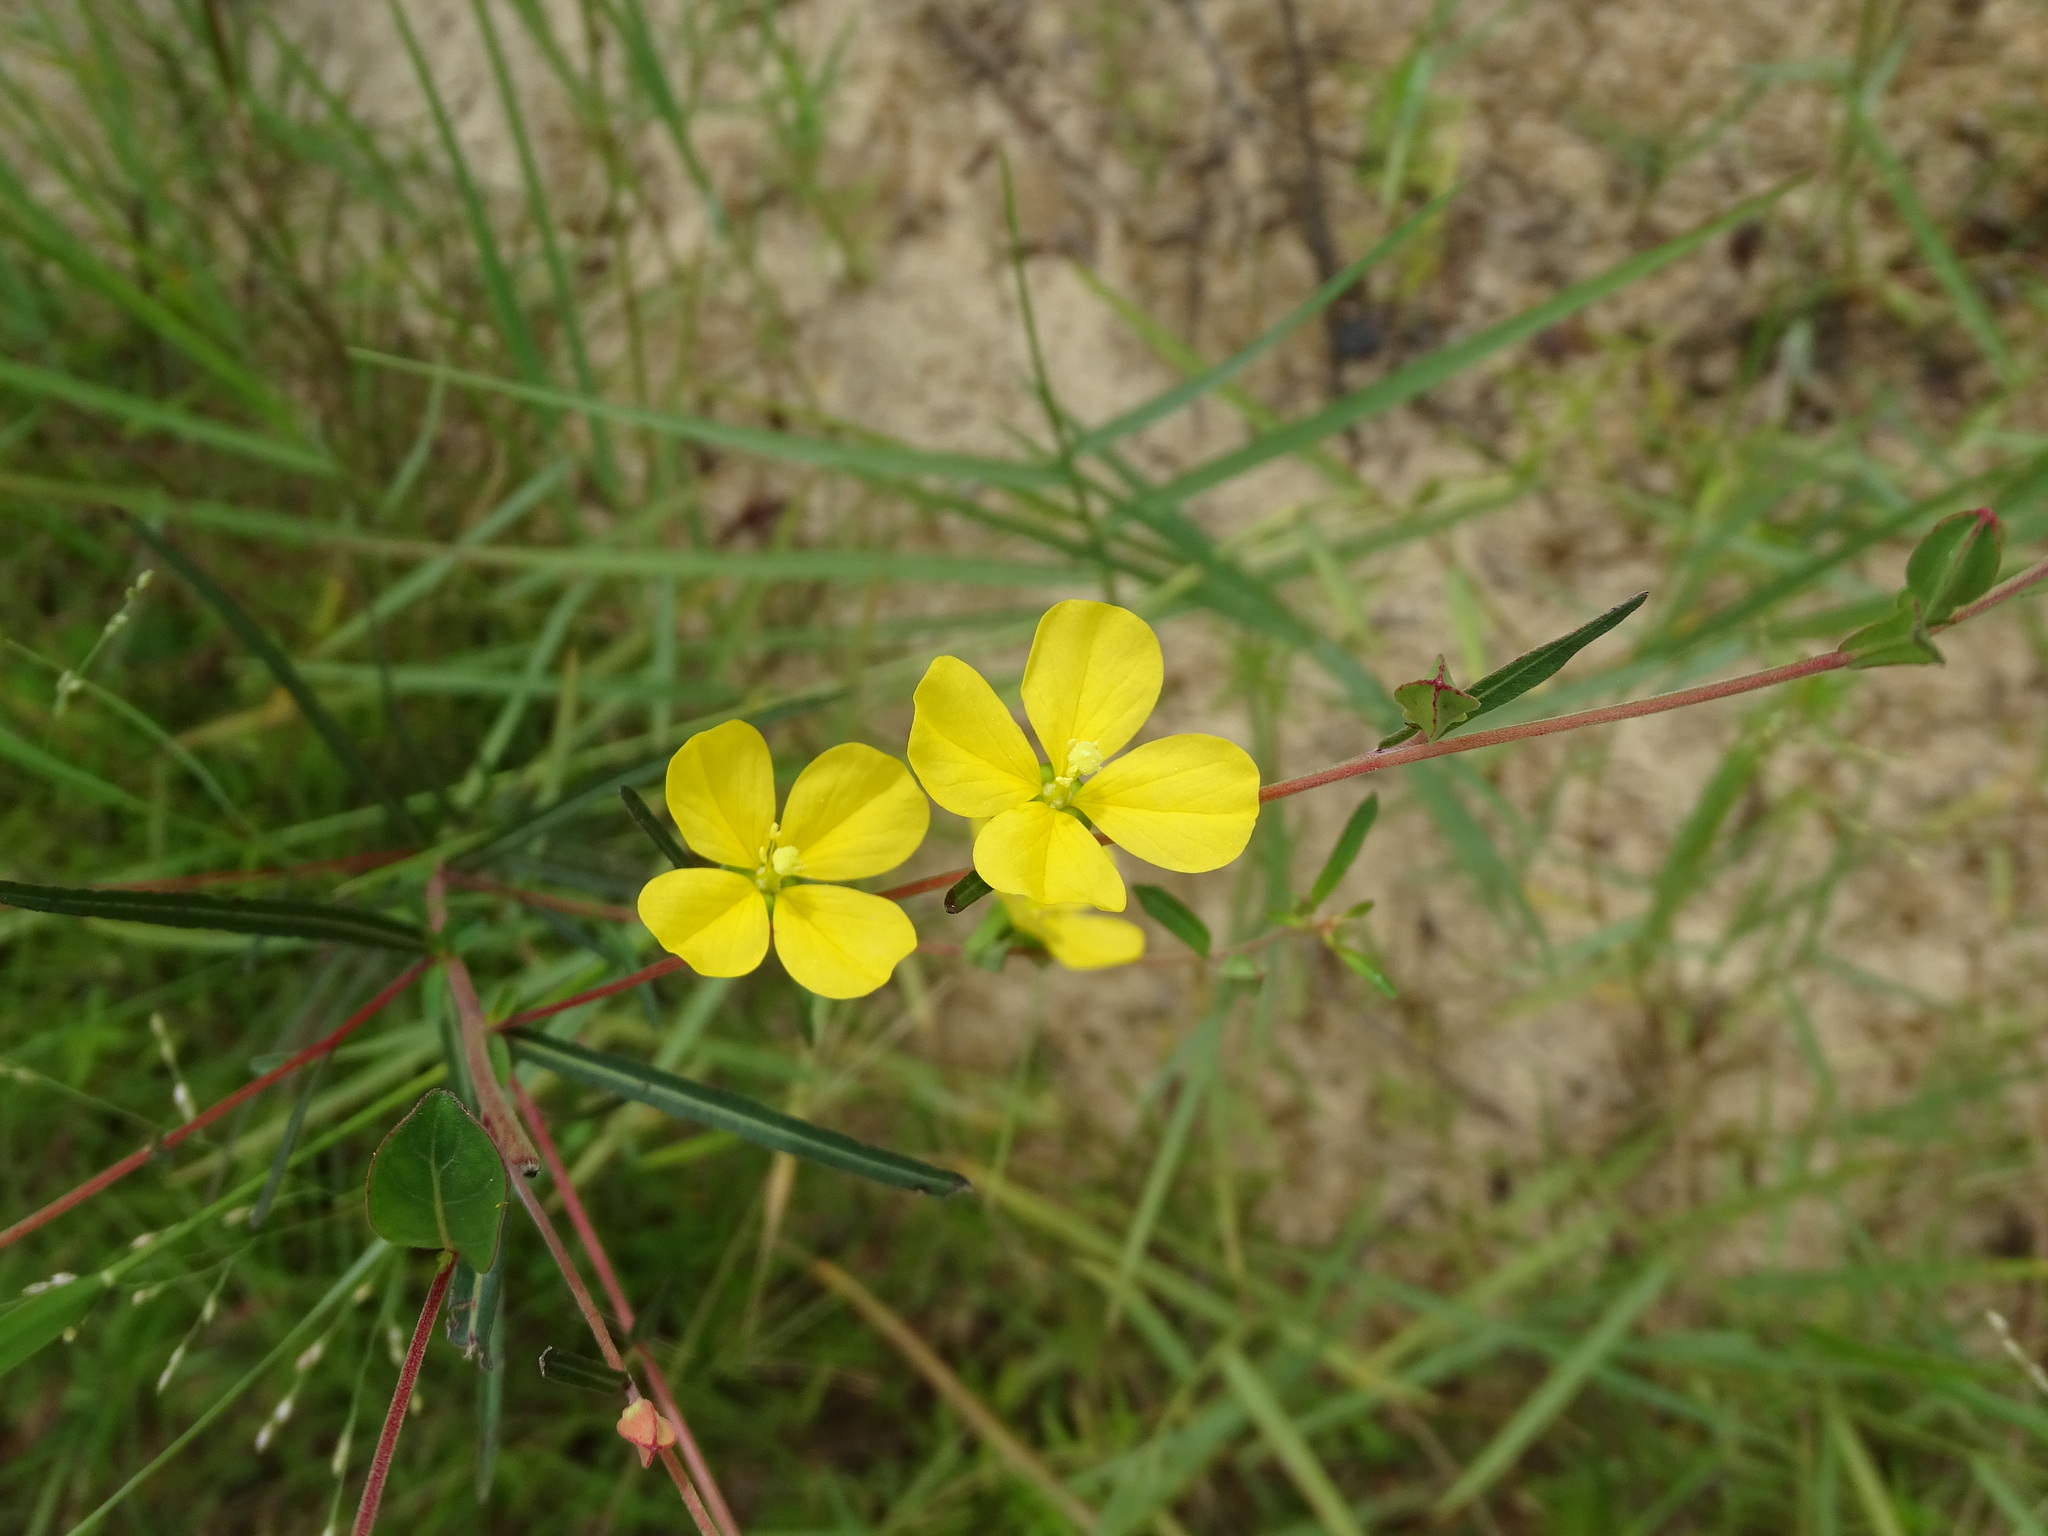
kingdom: Plantae
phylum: Tracheophyta
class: Magnoliopsida
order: Myrtales
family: Onagraceae
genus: Ludwigia
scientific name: Ludwigia virgata
